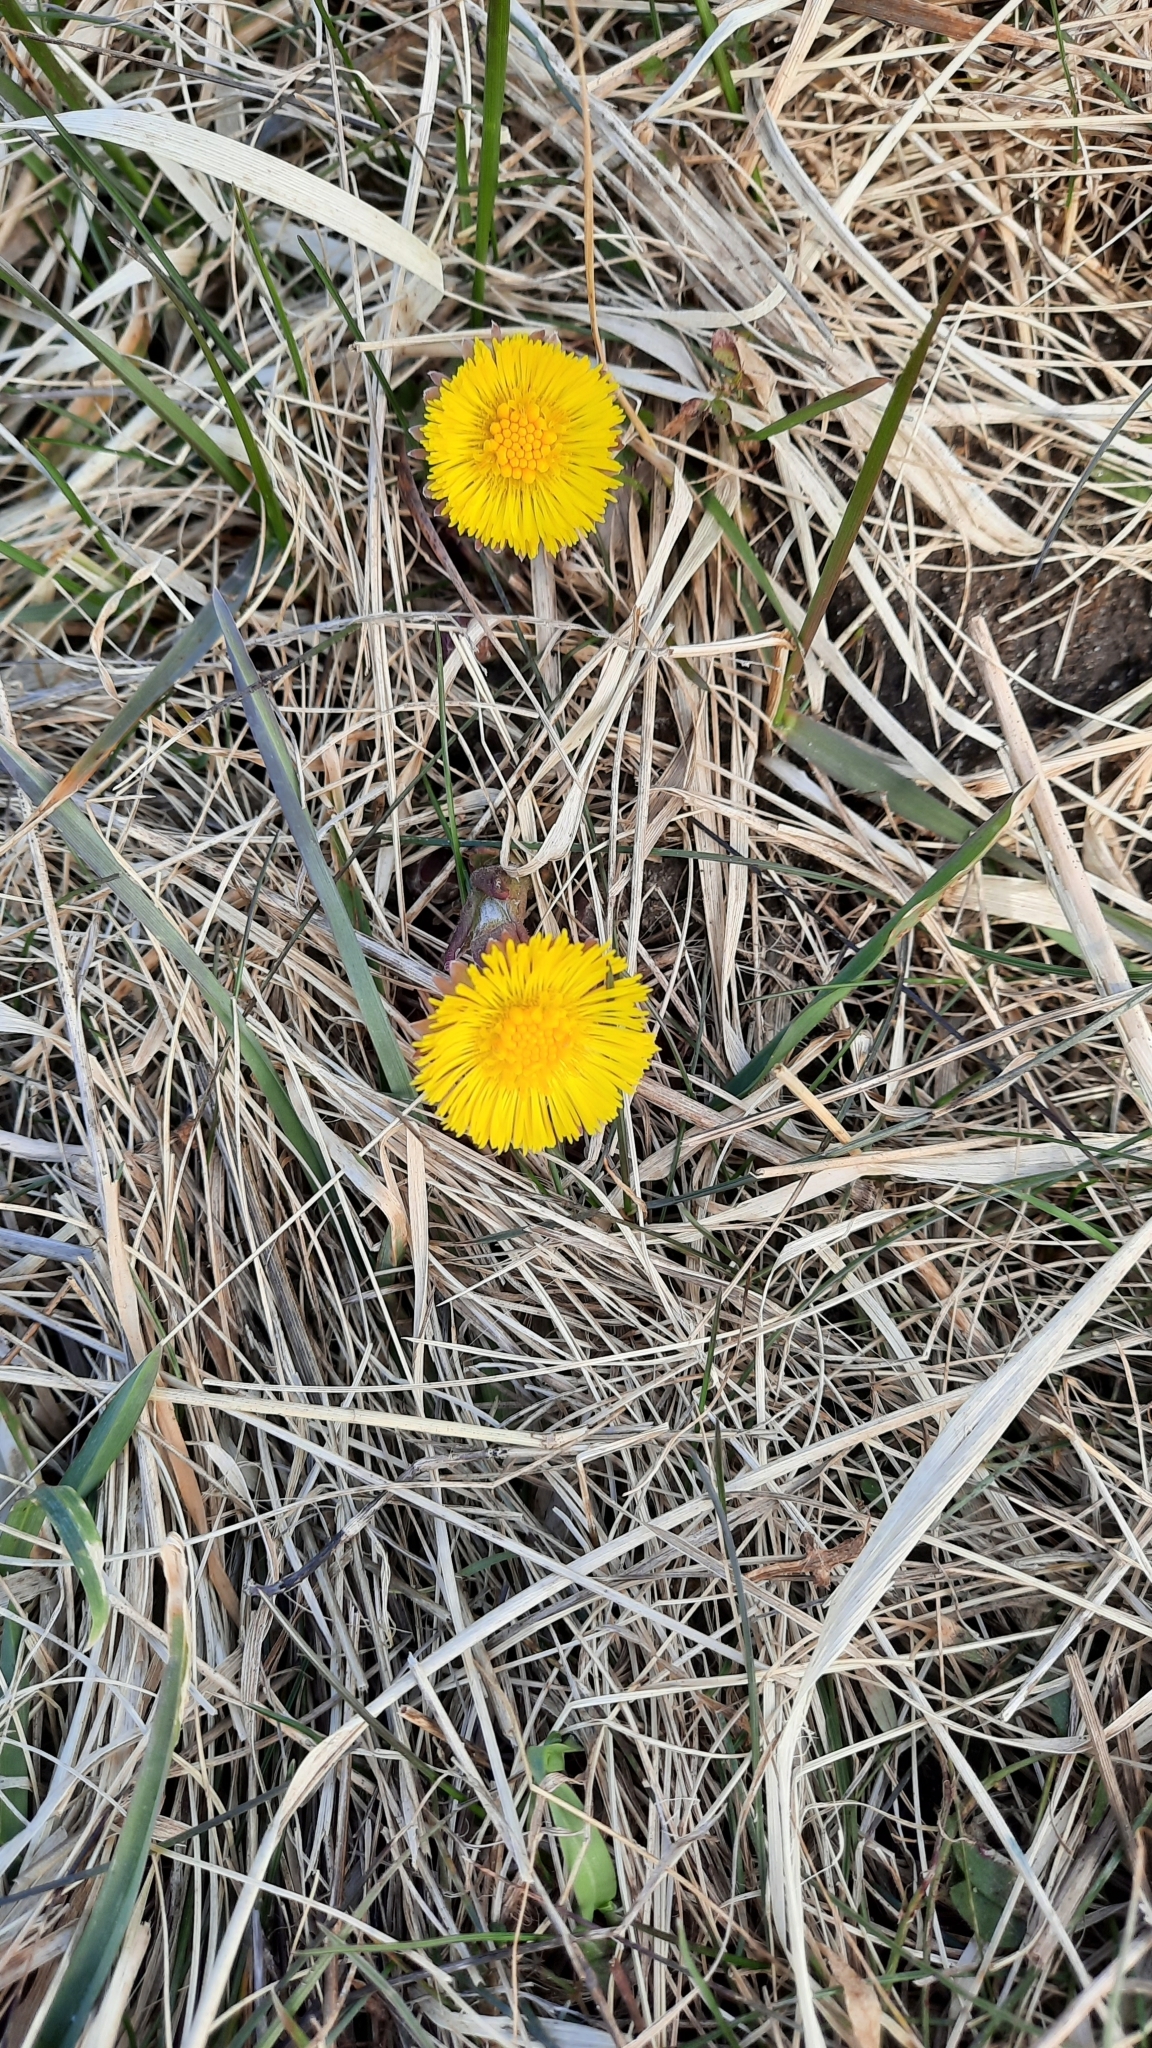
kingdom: Plantae
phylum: Tracheophyta
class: Magnoliopsida
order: Asterales
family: Asteraceae
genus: Tussilago
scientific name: Tussilago farfara
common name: Coltsfoot
